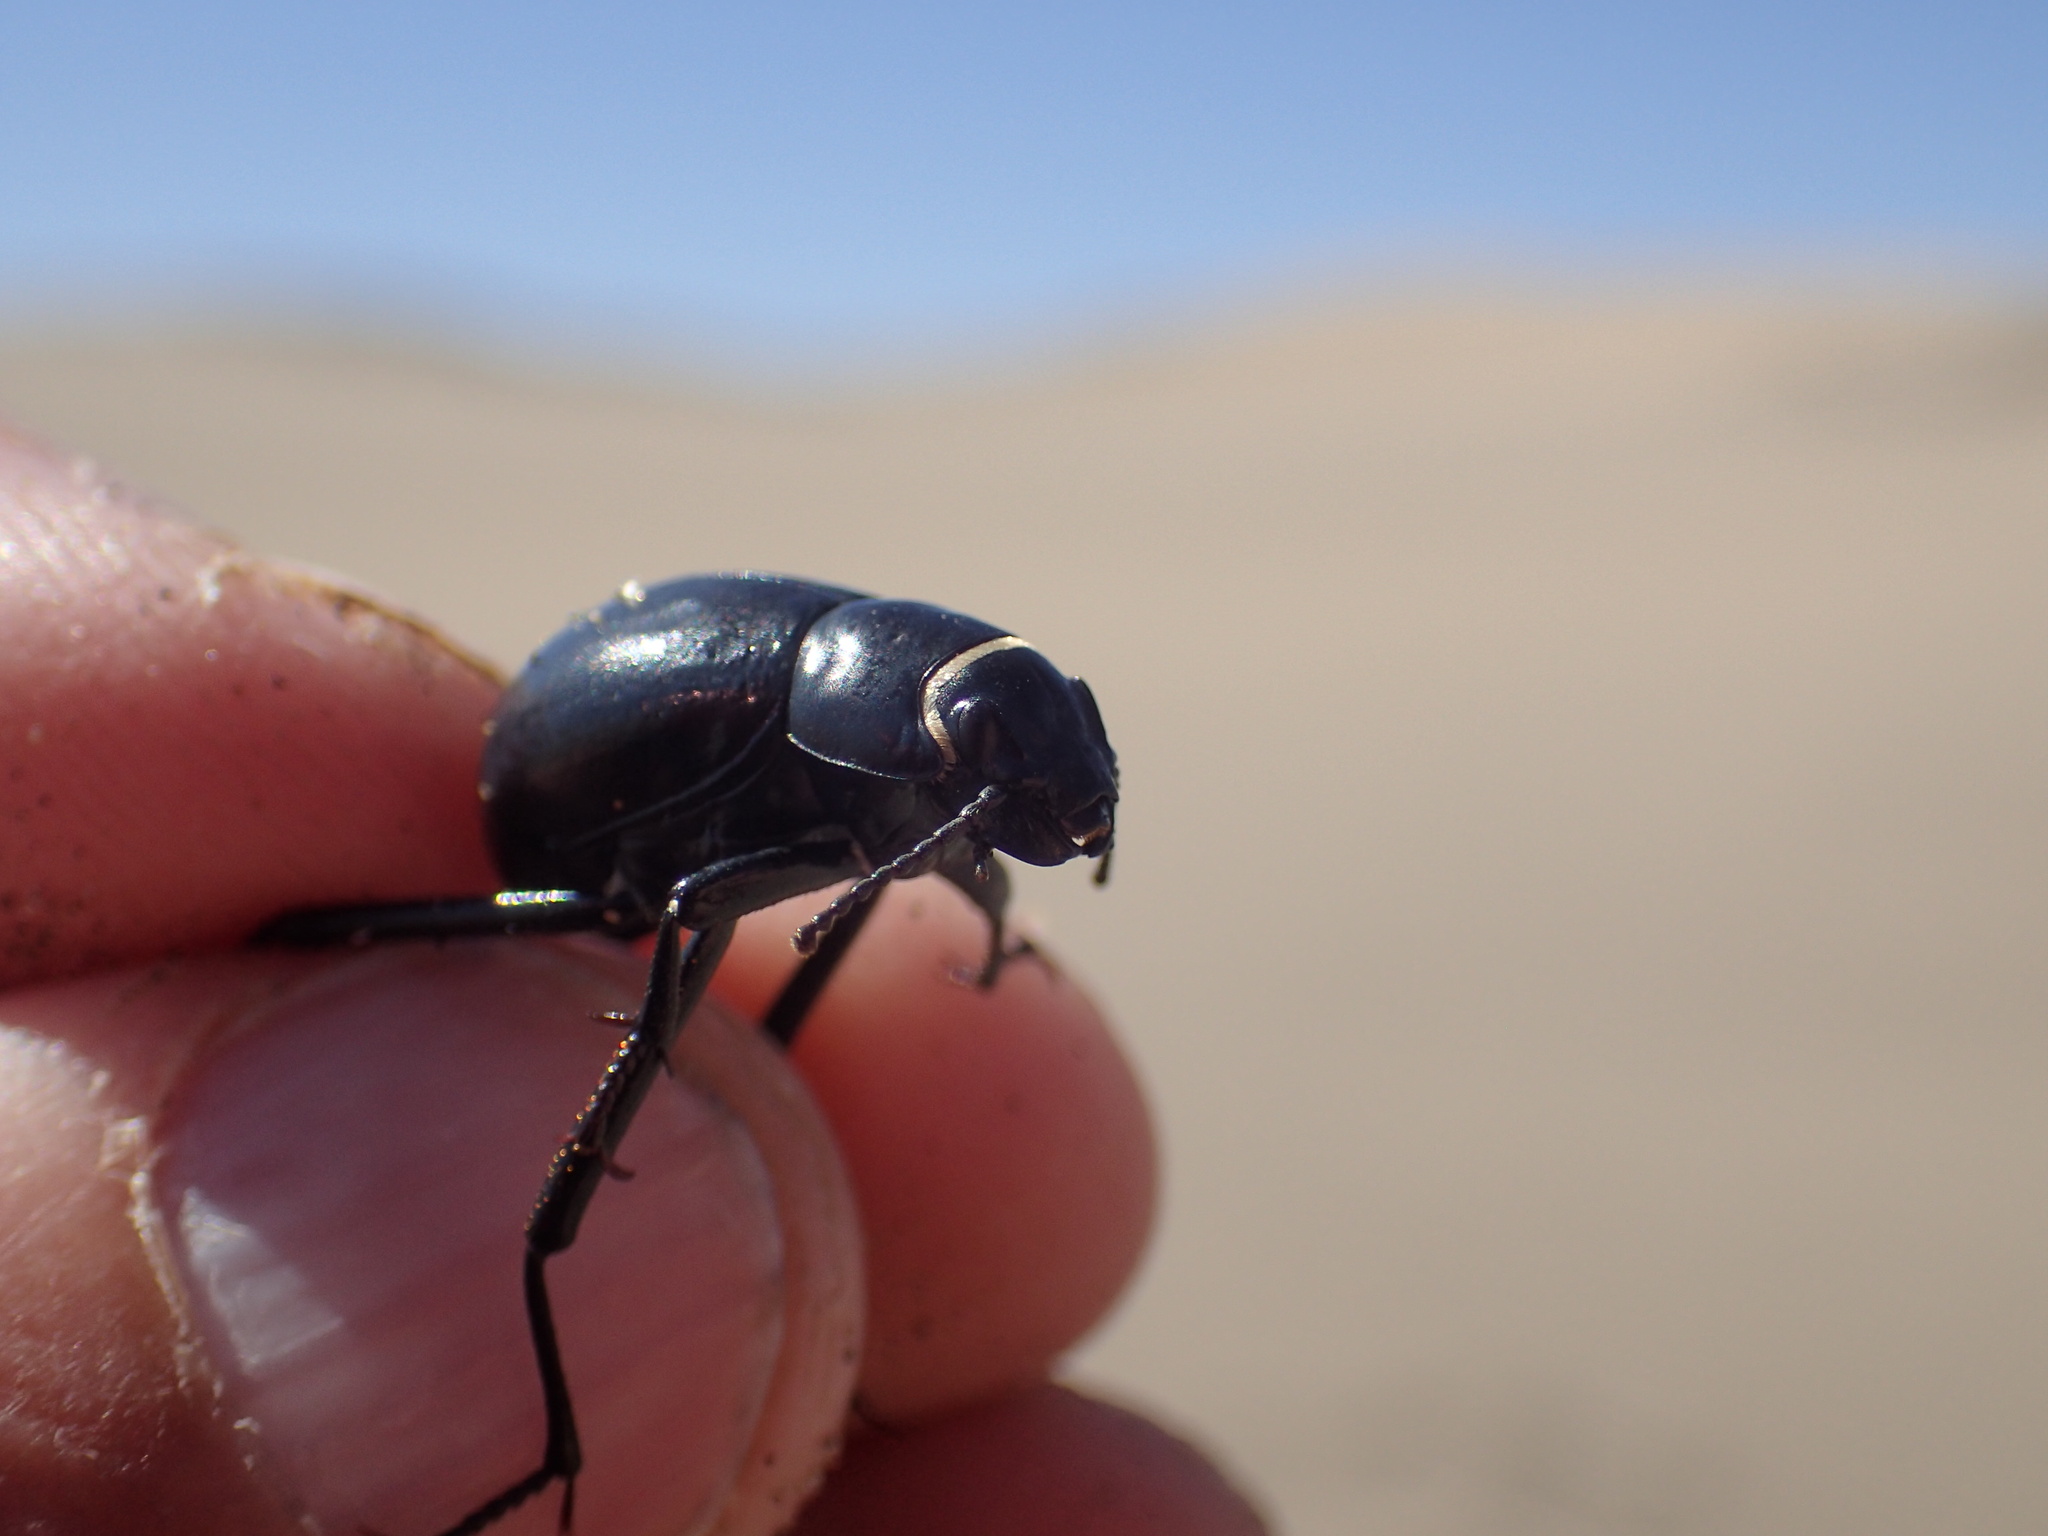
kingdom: Animalia
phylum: Arthropoda
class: Insecta
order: Coleoptera
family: Tenebrionidae
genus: Onymacris
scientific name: Onymacris unguicularis
